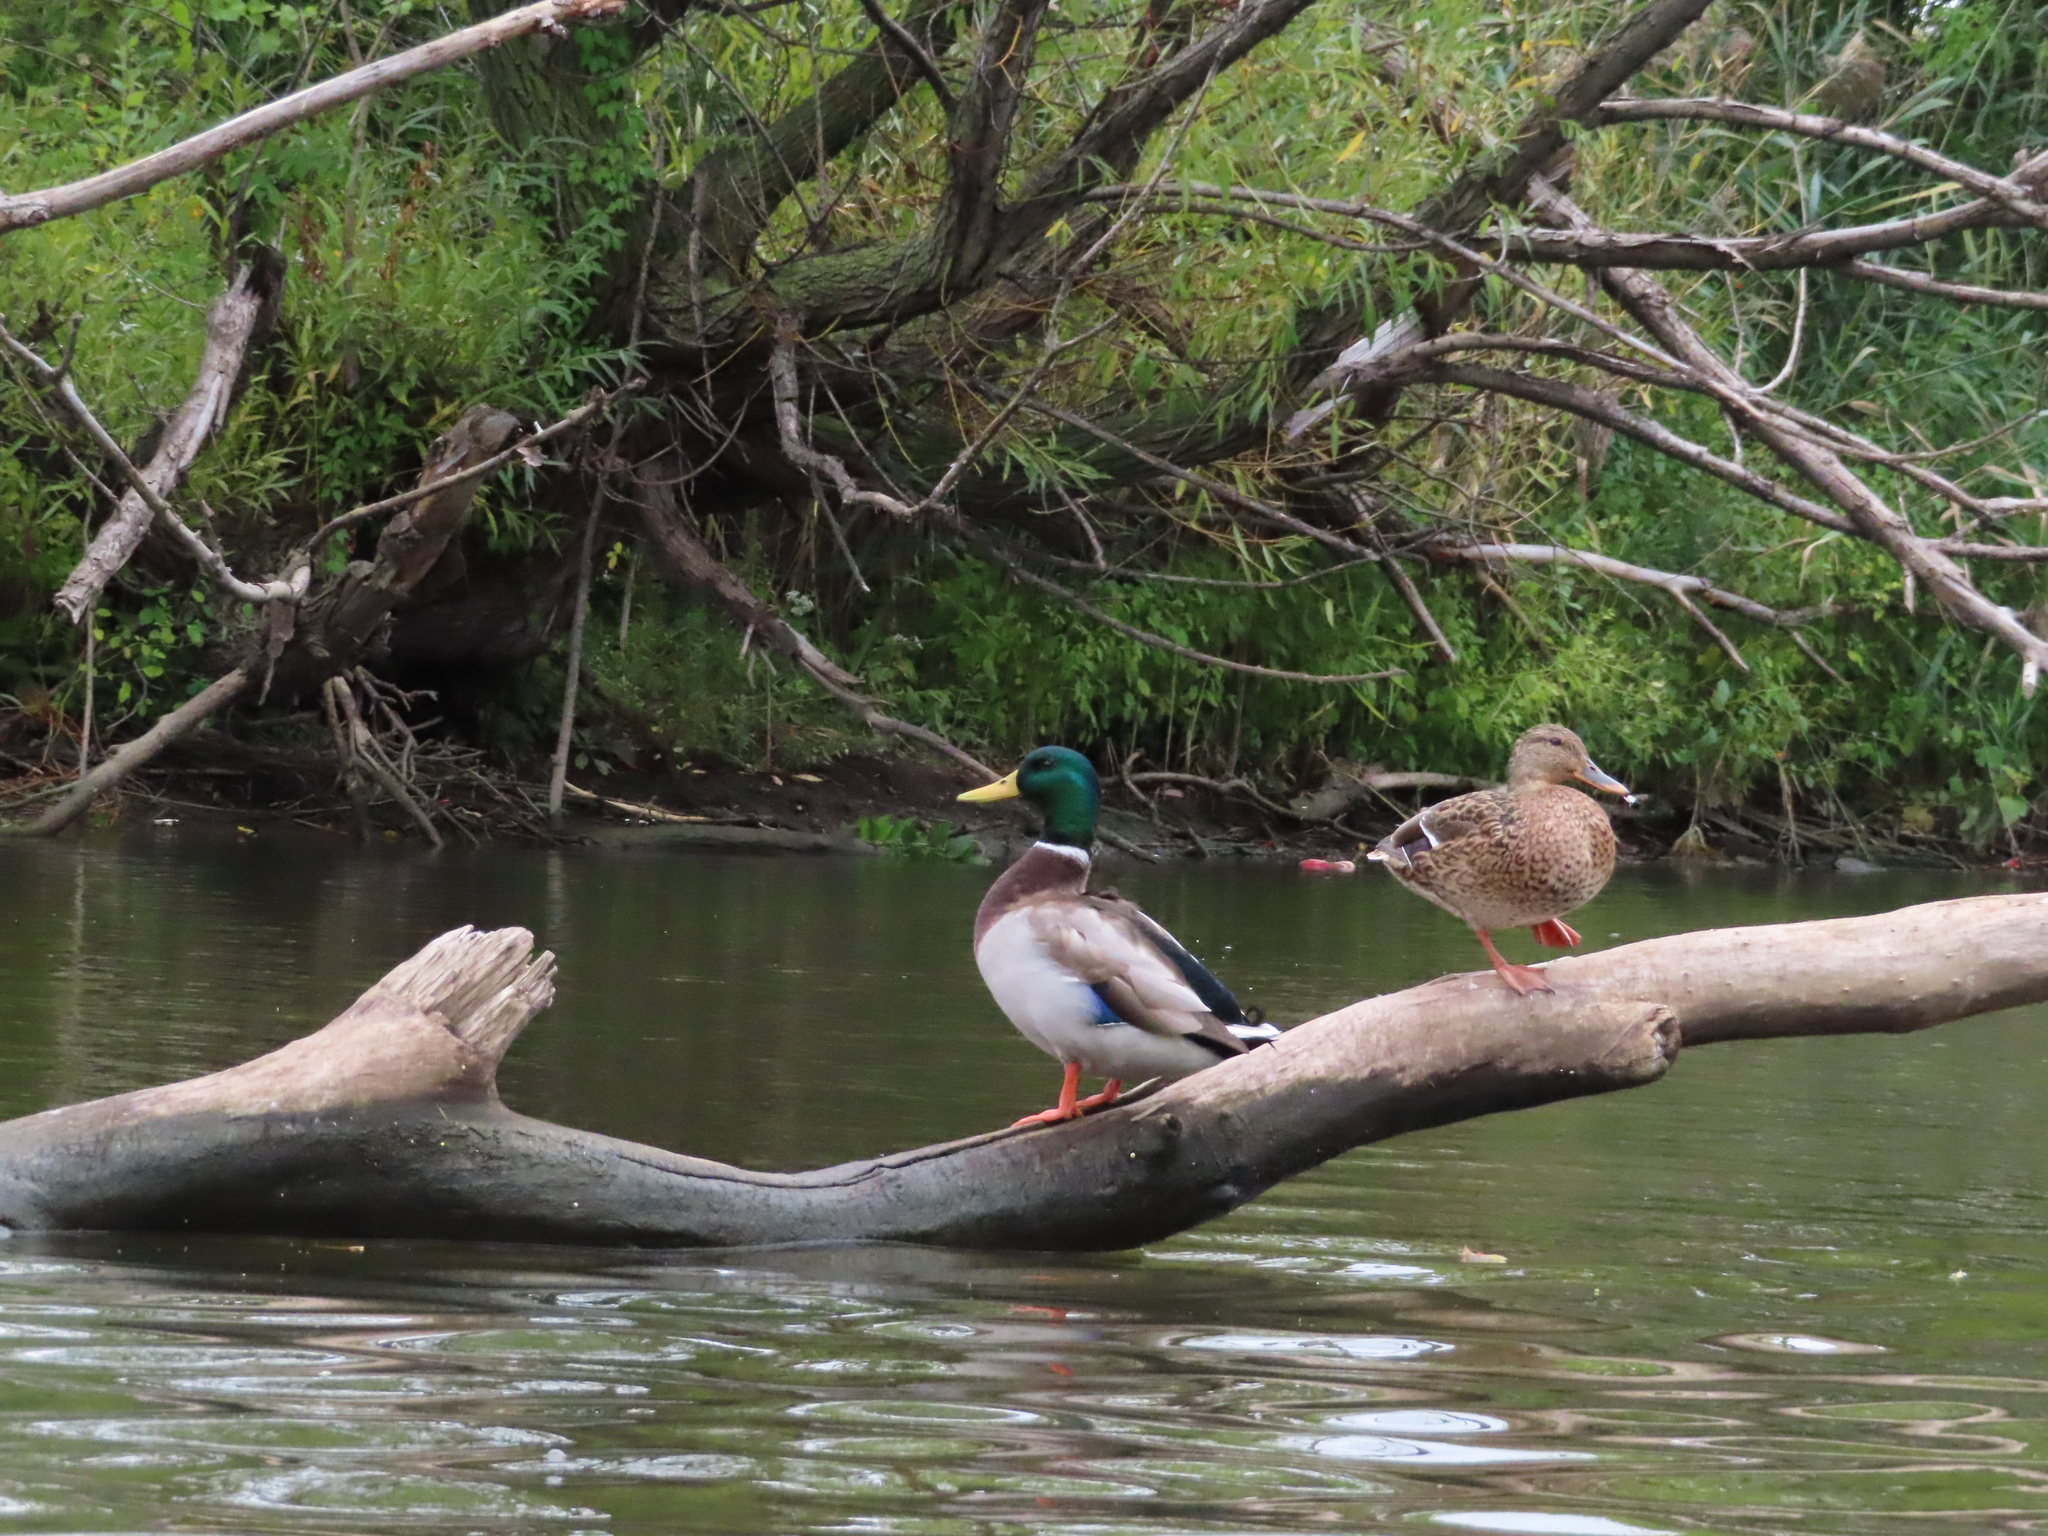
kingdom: Animalia
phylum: Chordata
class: Aves
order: Anseriformes
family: Anatidae
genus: Anas
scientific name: Anas platyrhynchos
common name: Mallard
